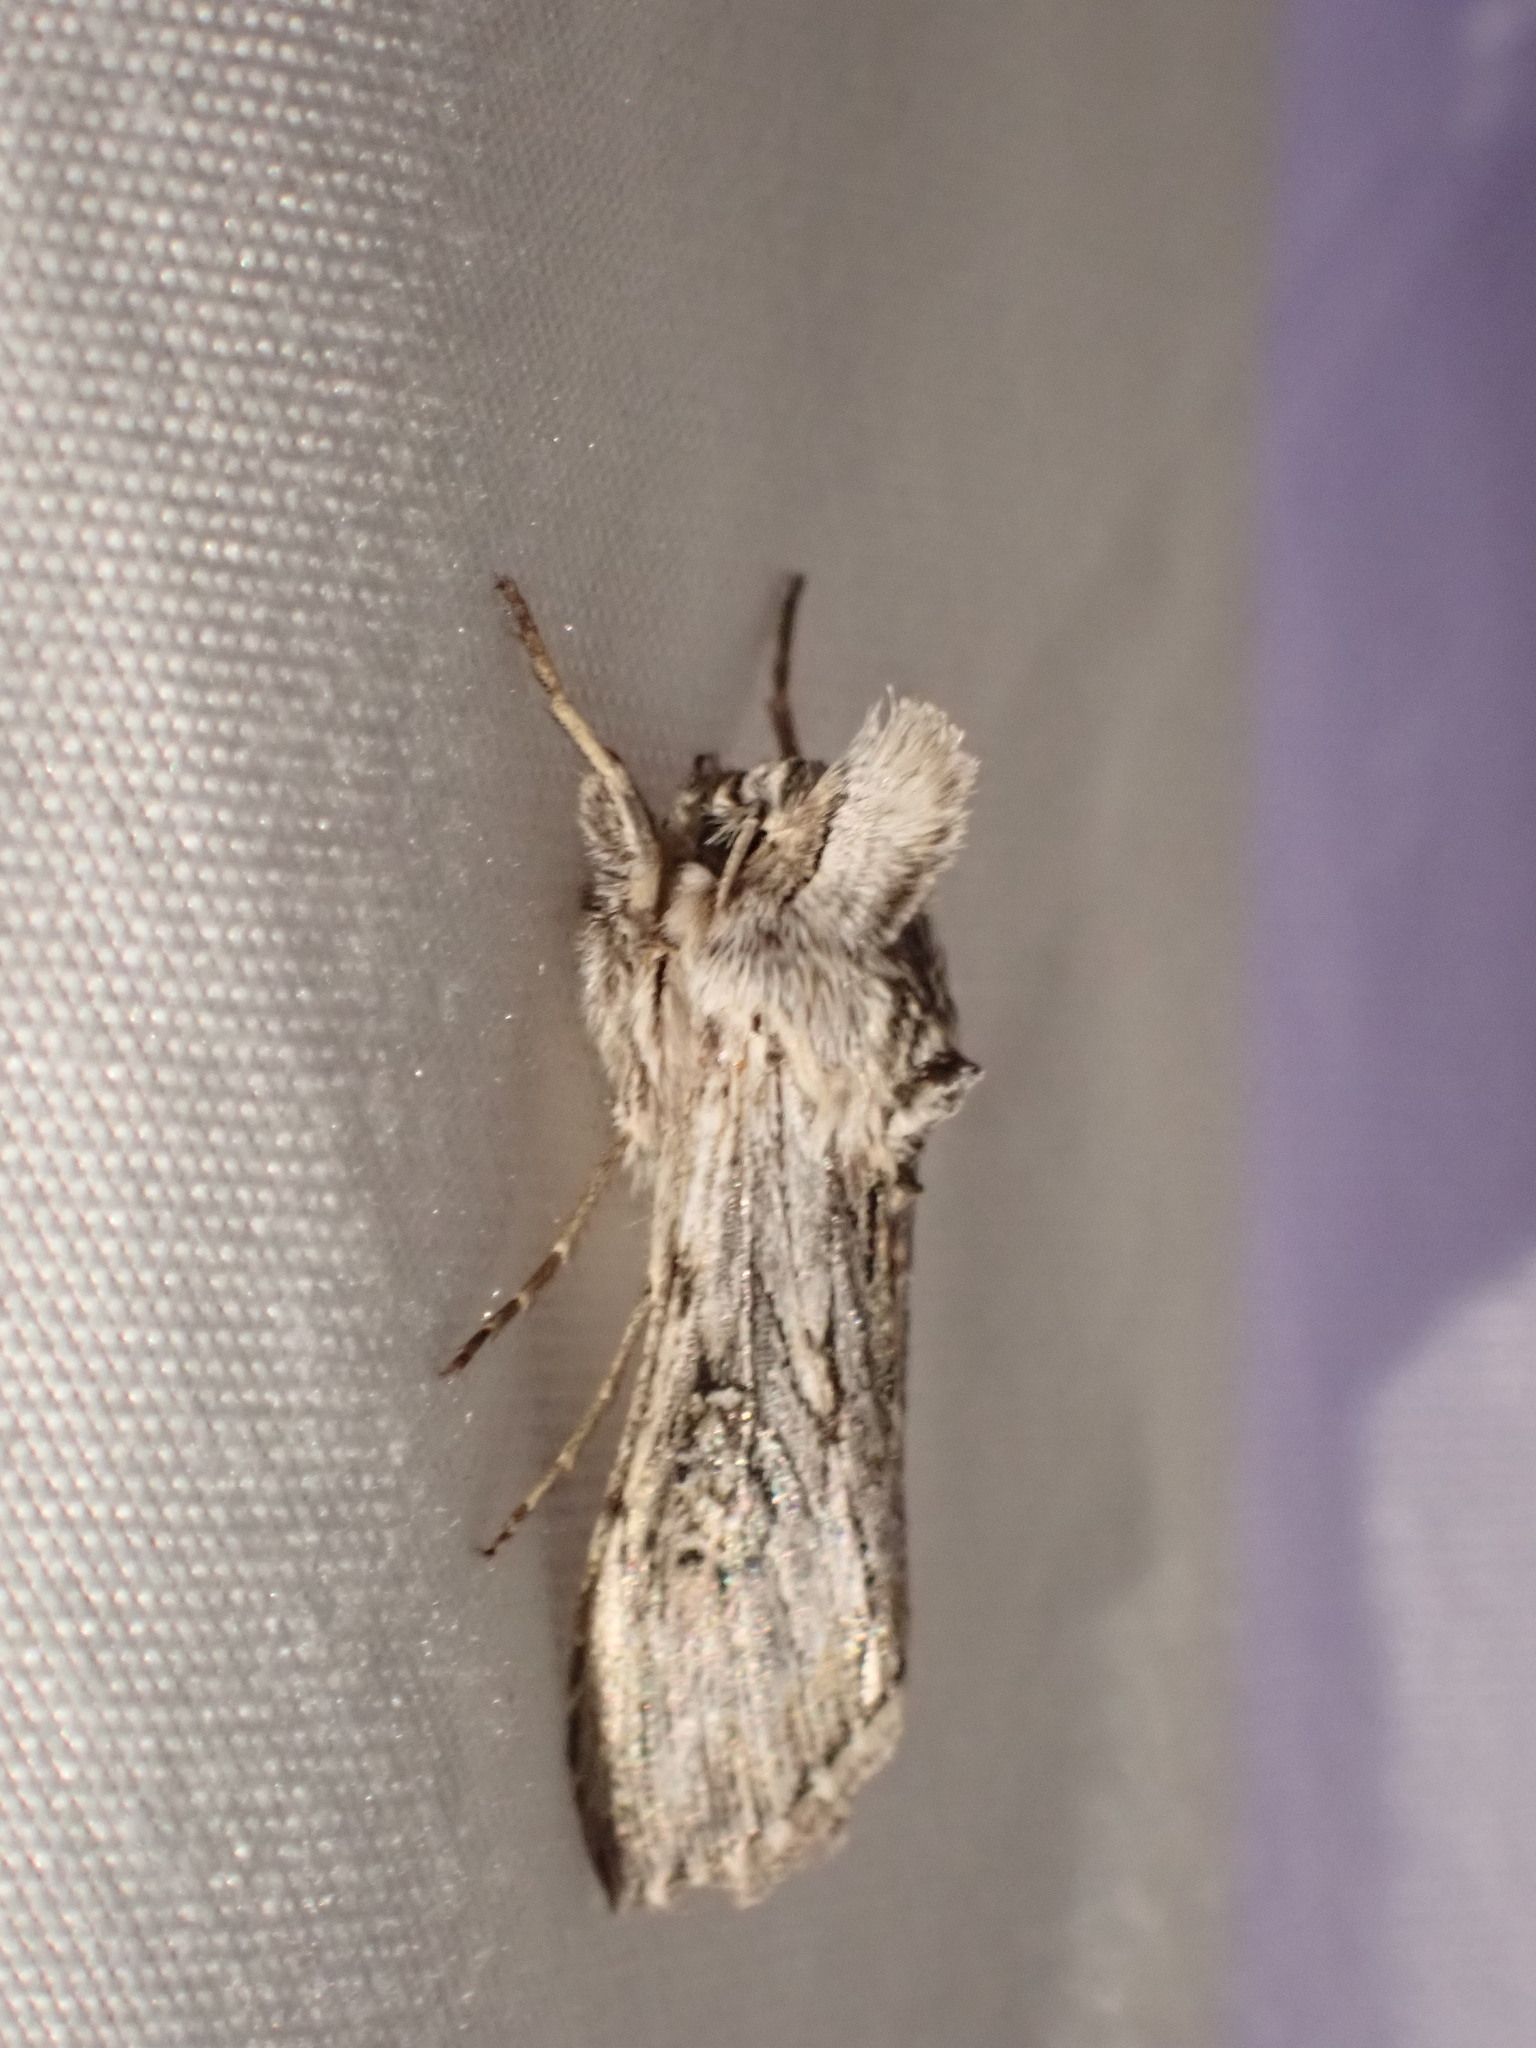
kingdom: Animalia
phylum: Arthropoda
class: Insecta
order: Lepidoptera
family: Noctuidae
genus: Cucullia
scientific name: Cucullia antipoda
